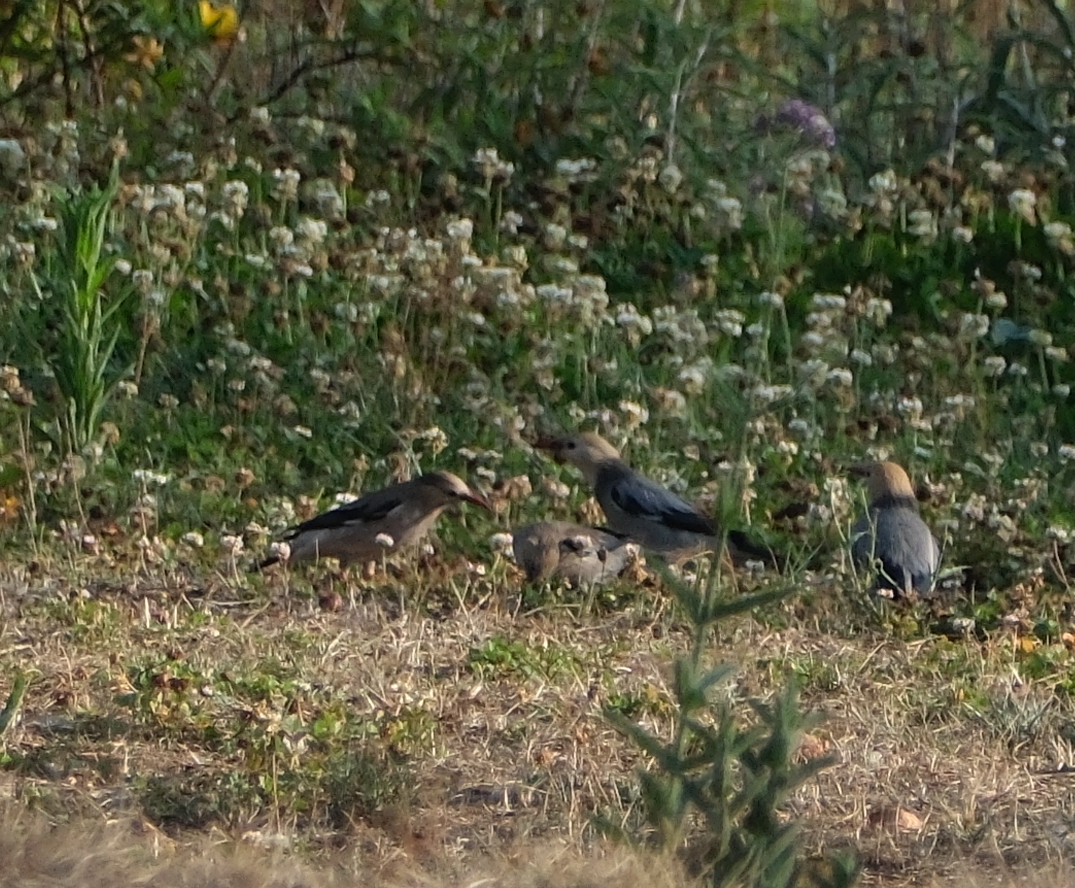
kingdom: Animalia
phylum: Chordata
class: Aves
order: Passeriformes
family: Sturnidae
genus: Spodiopsar
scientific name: Spodiopsar sericeus
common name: Red-billed starling
